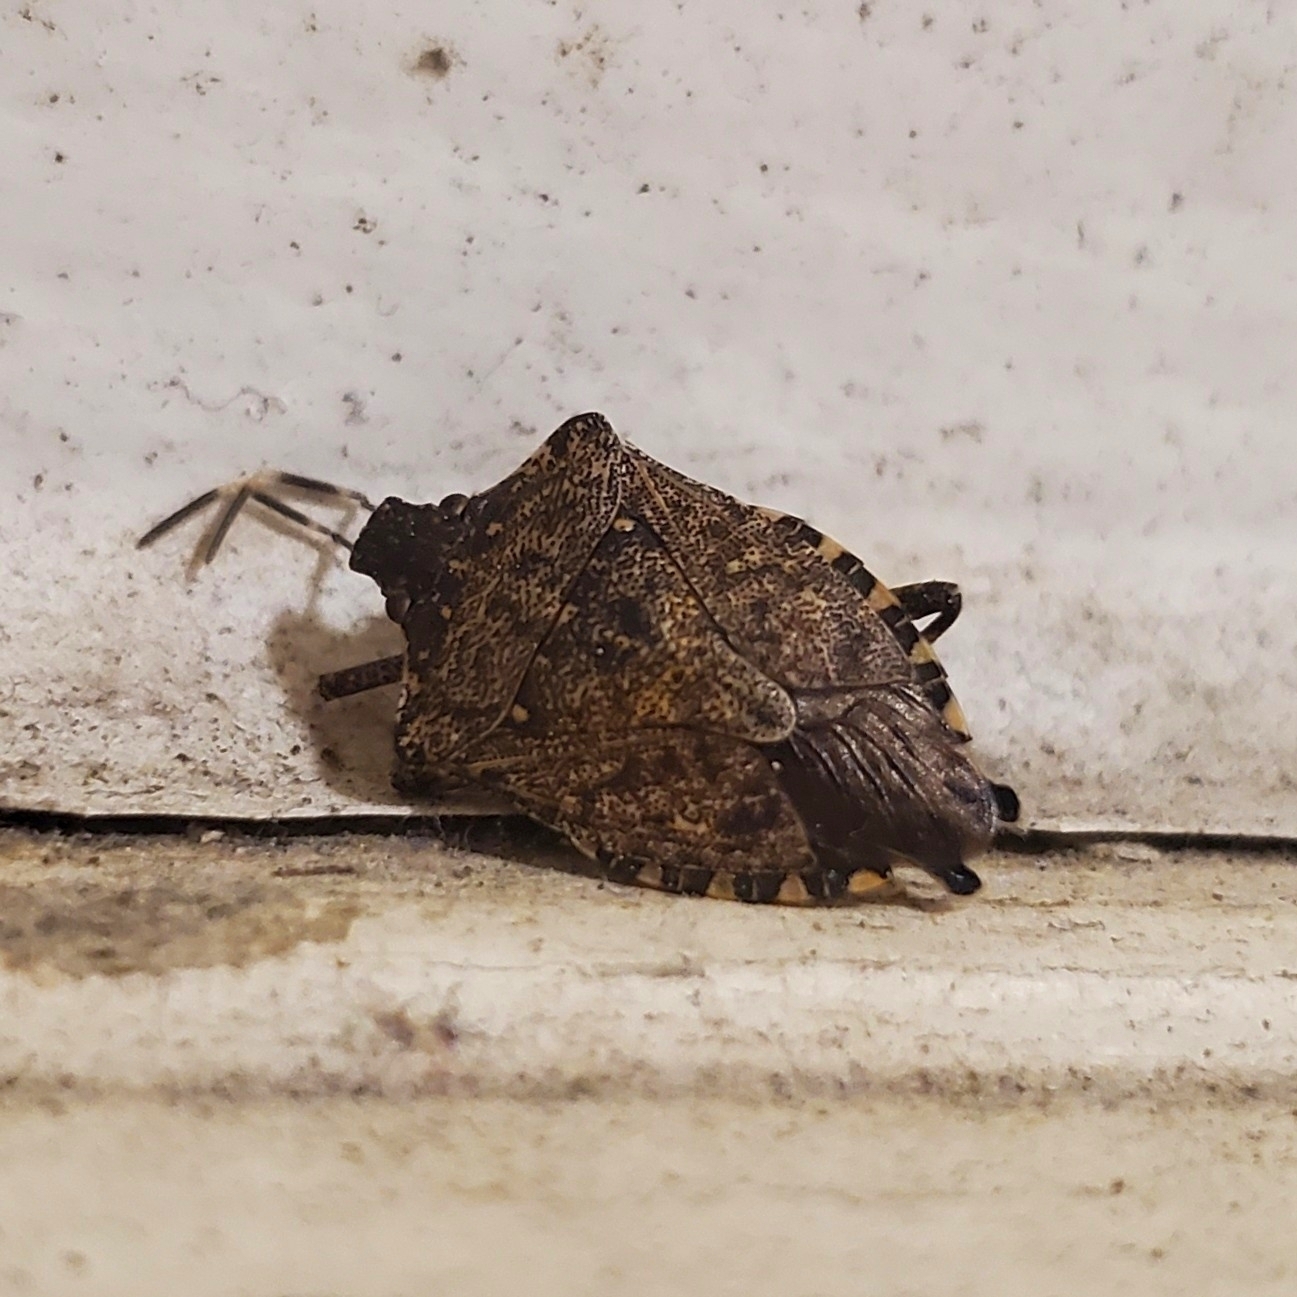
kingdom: Animalia
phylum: Arthropoda
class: Insecta
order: Hemiptera
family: Pentatomidae
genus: Halyomorpha
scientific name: Halyomorpha halys
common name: Brown marmorated stink bug
